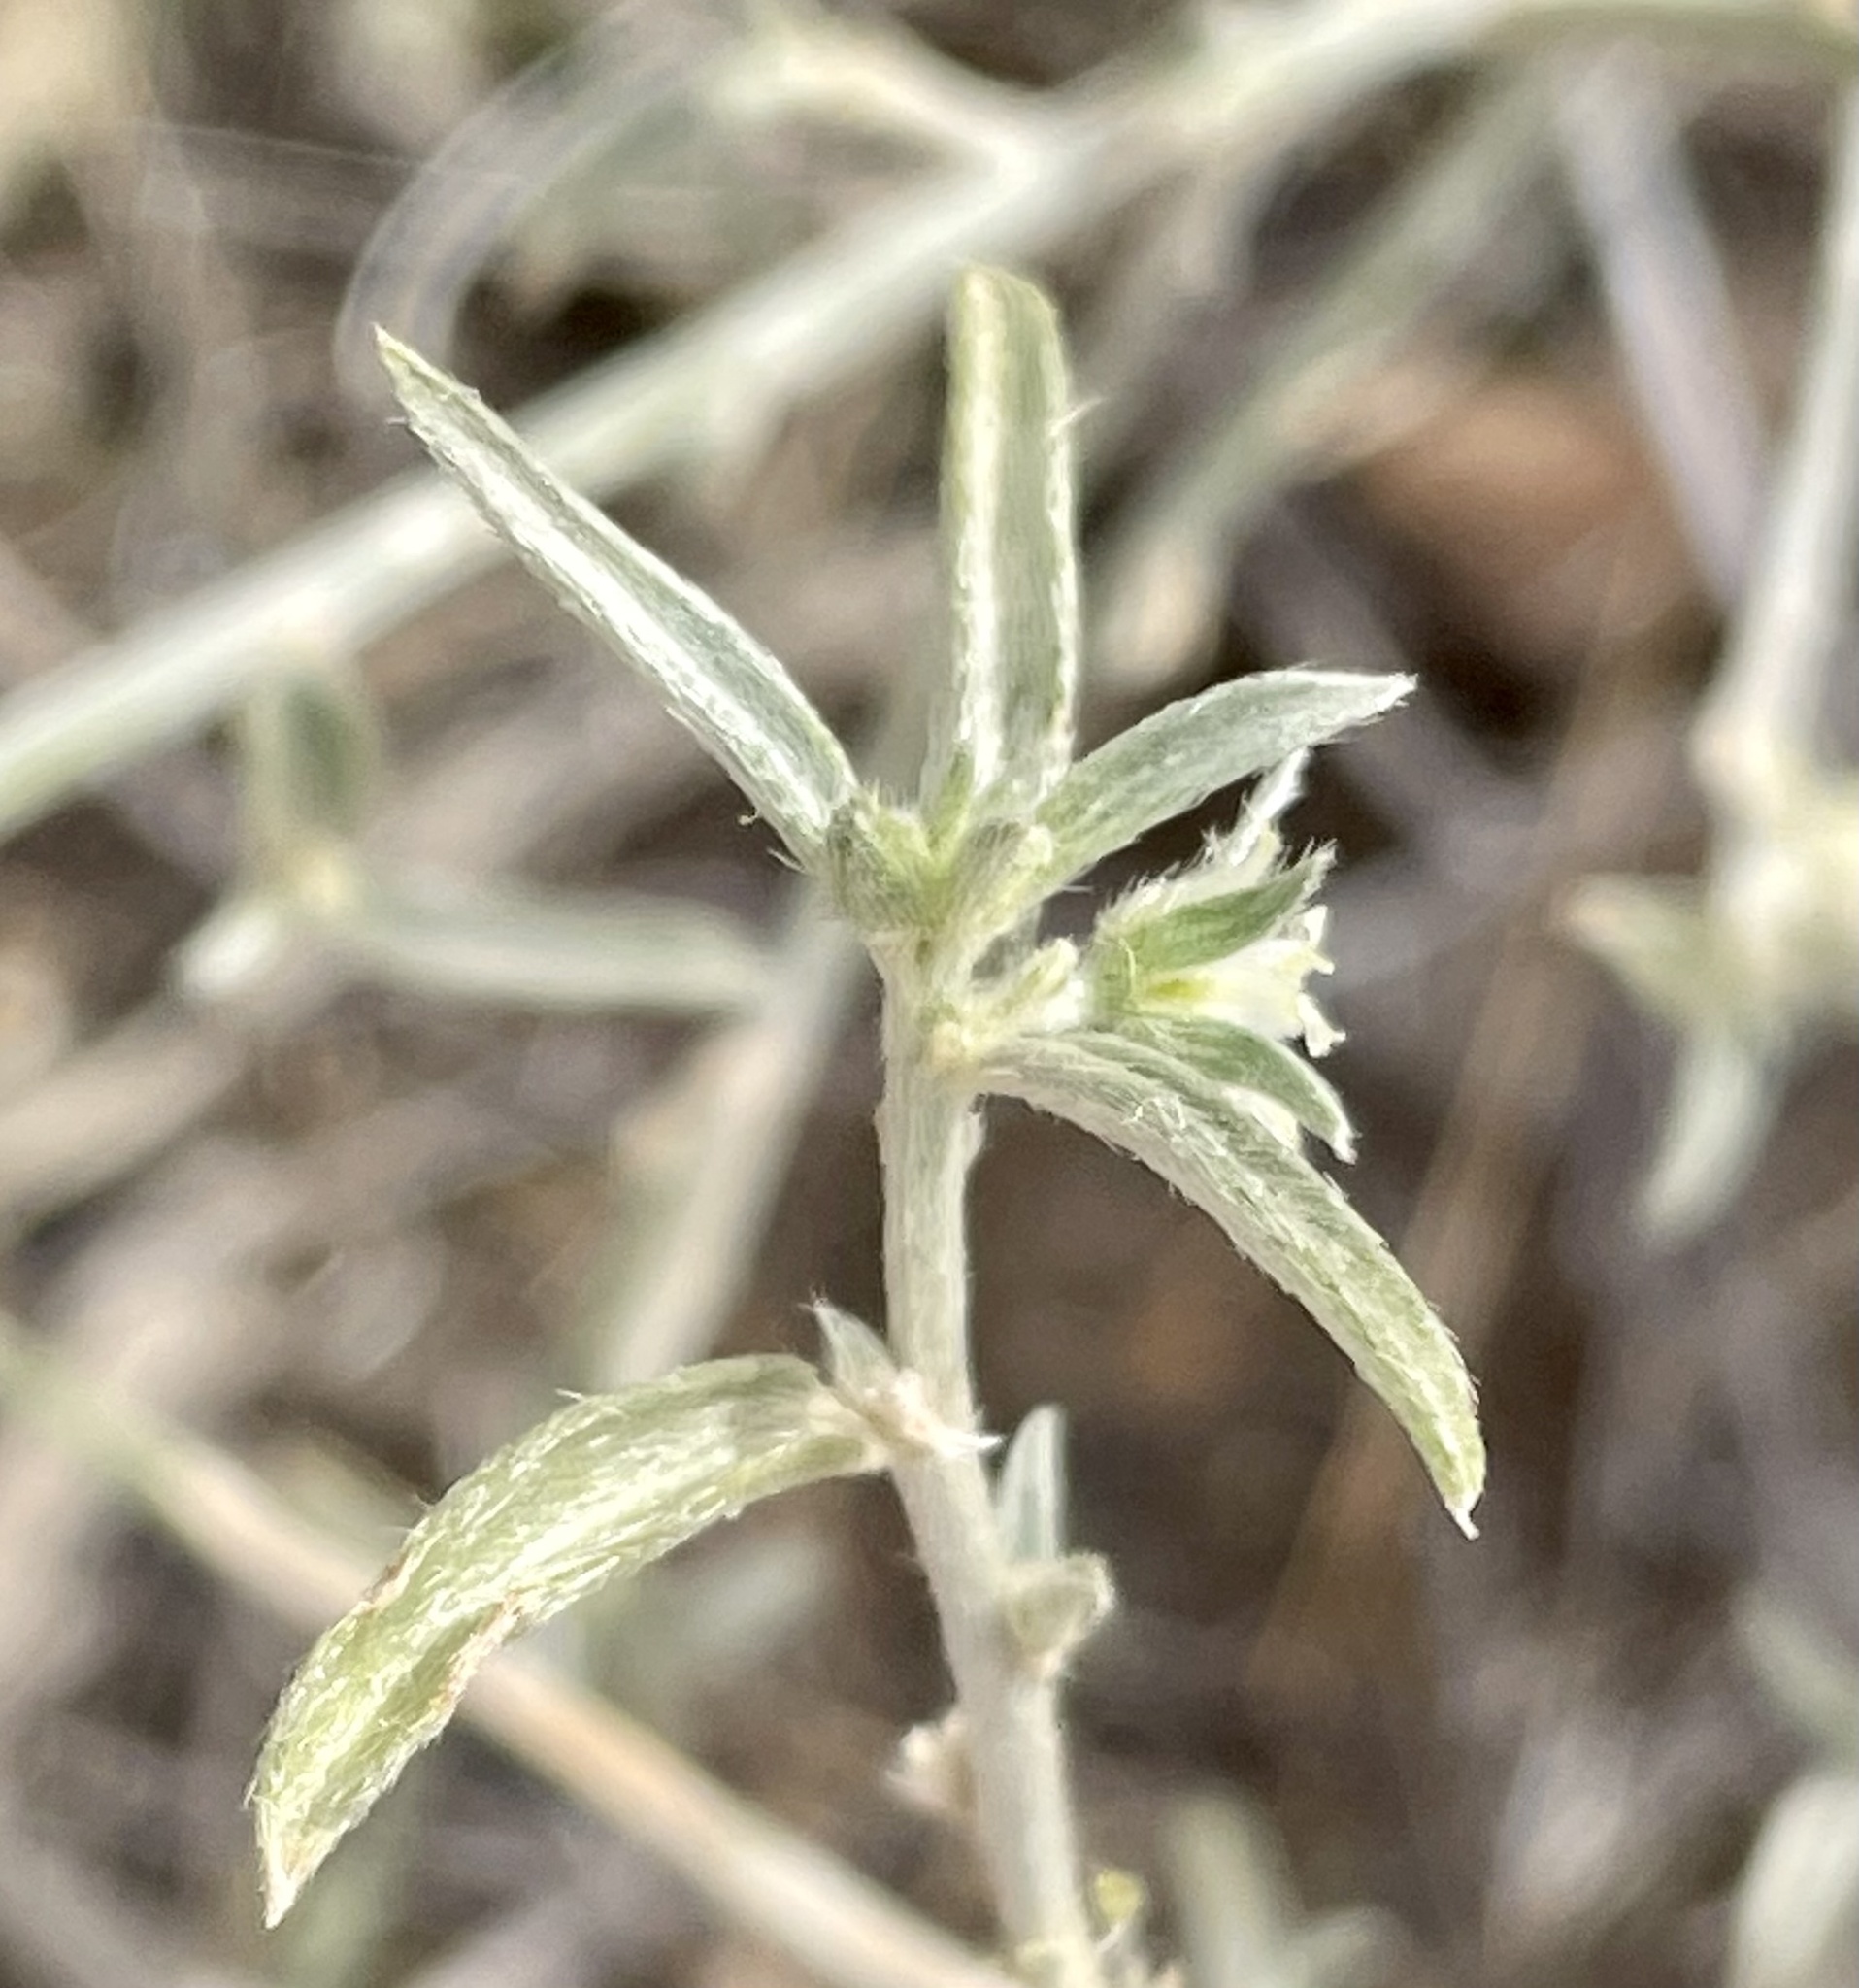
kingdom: Plantae
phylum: Tracheophyta
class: Magnoliopsida
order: Malpighiales
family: Euphorbiaceae
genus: Ditaxis
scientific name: Ditaxis lanceolata
